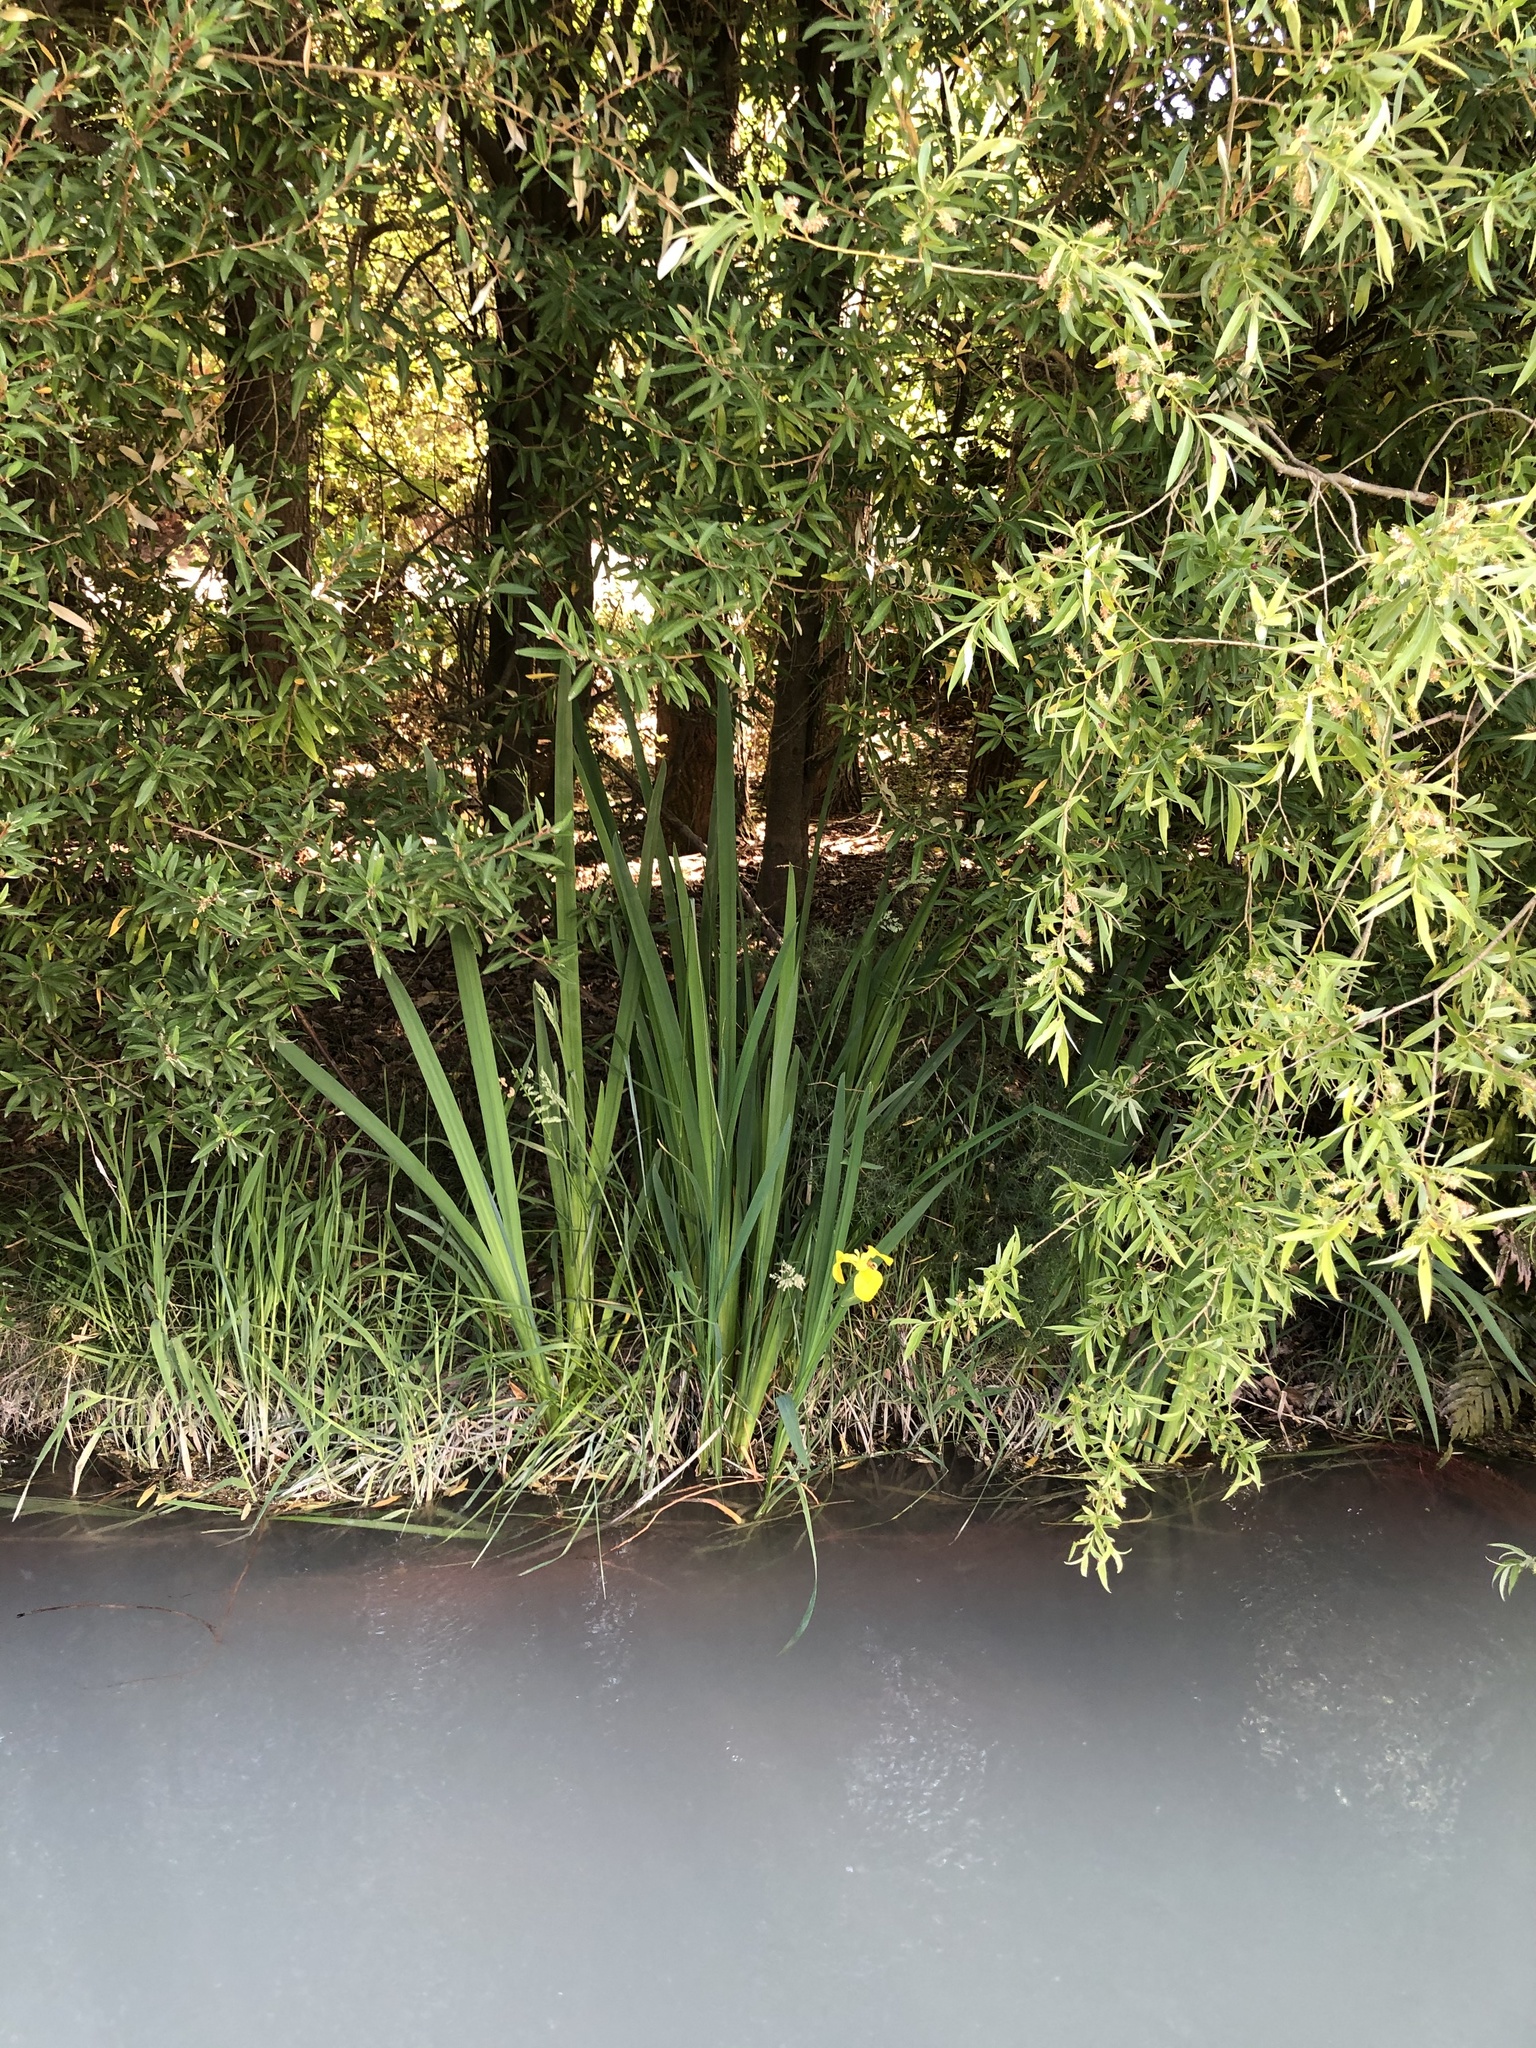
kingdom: Plantae
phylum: Tracheophyta
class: Liliopsida
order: Asparagales
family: Iridaceae
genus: Iris
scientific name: Iris pseudacorus
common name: Yellow flag
